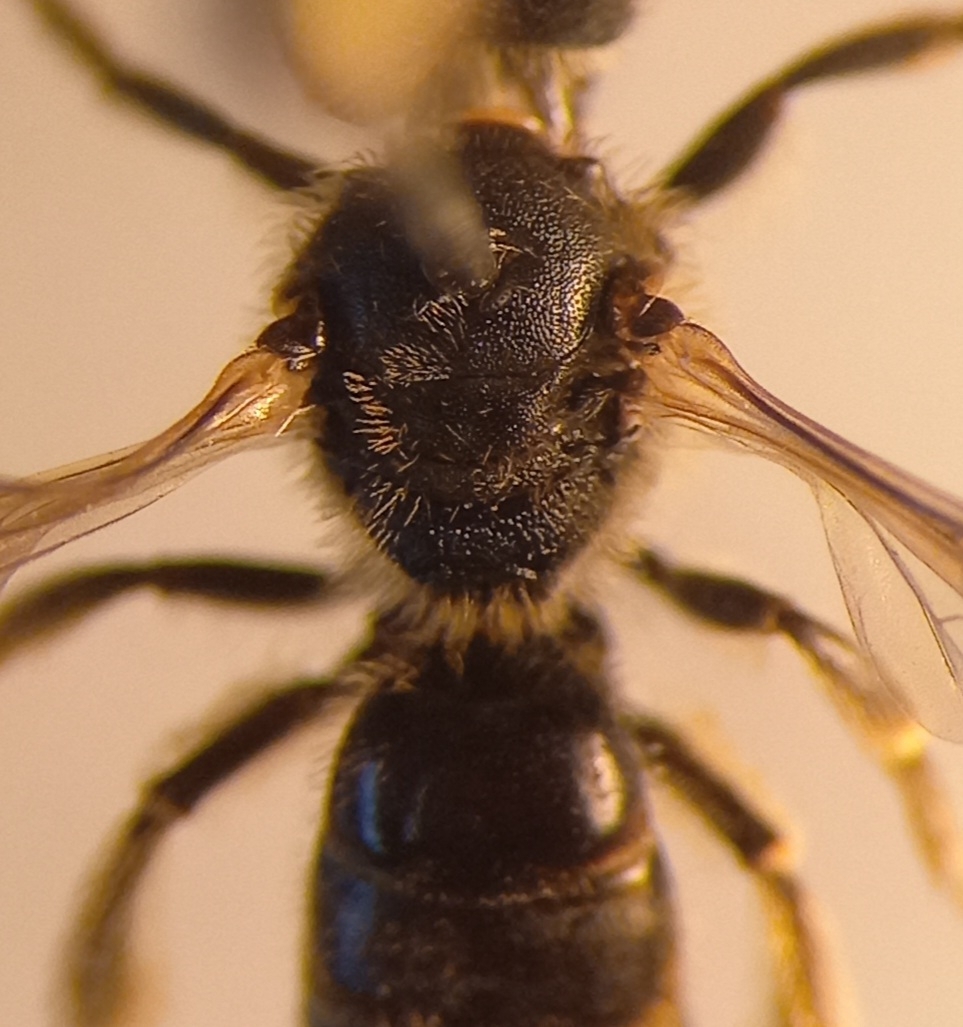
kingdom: Animalia
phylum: Arthropoda
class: Insecta
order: Hymenoptera
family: Halictidae
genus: Lasioglossum
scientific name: Lasioglossum malachurum
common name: Sharp-collared furrow bee
